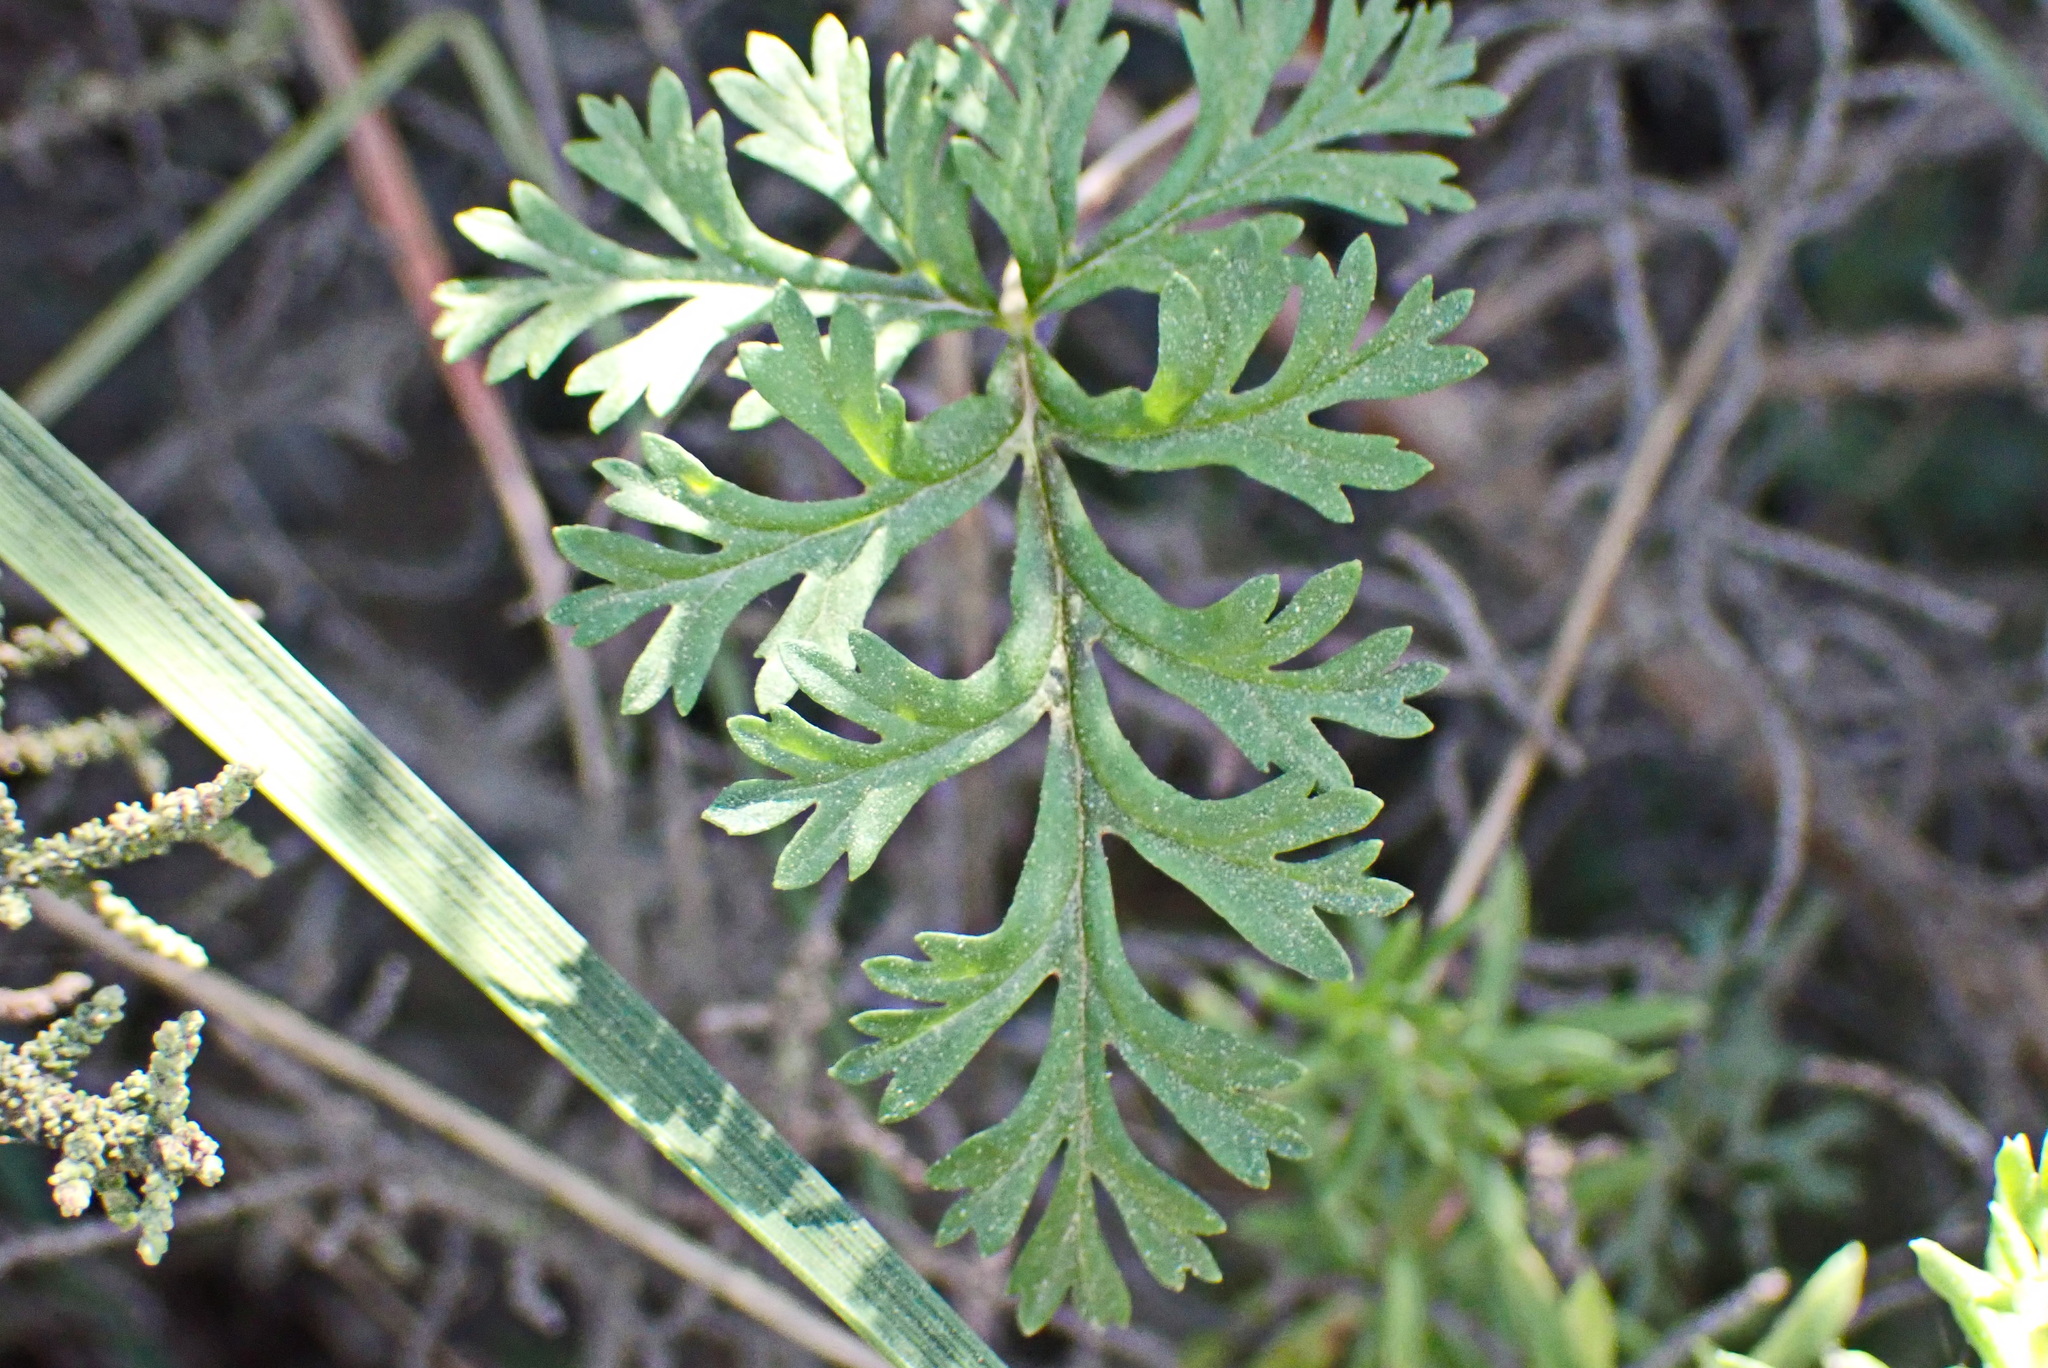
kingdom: Plantae
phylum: Tracheophyta
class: Magnoliopsida
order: Geraniales
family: Geraniaceae
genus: Pelargonium
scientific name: Pelargonium multicaule
